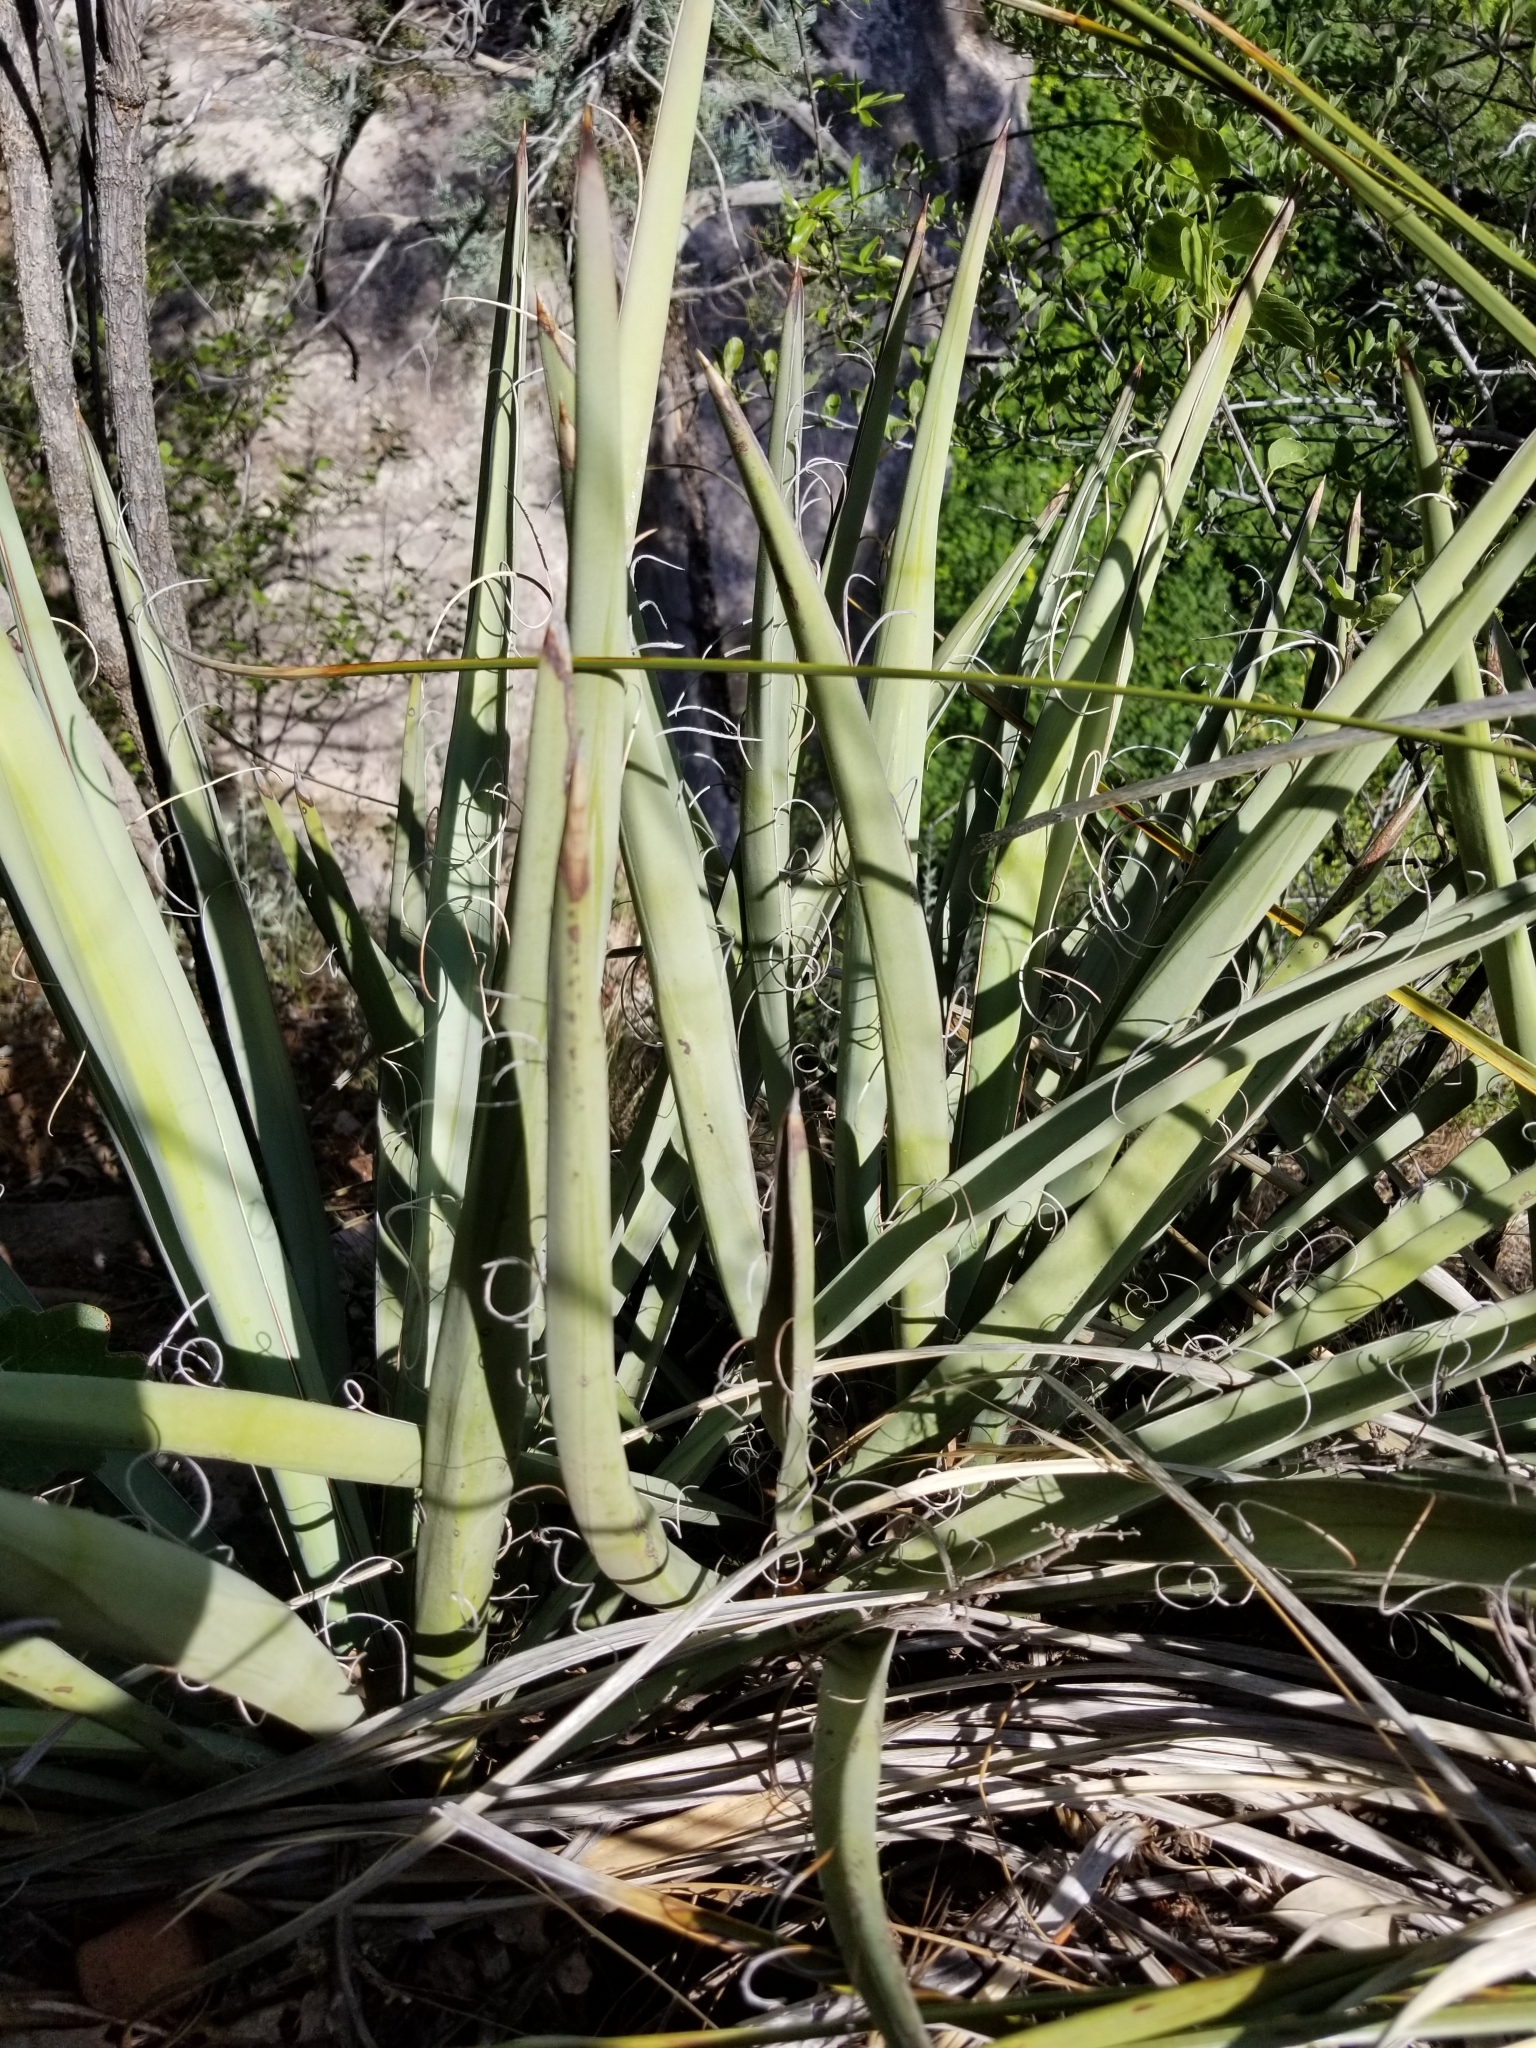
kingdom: Plantae
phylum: Tracheophyta
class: Liliopsida
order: Asparagales
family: Asparagaceae
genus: Yucca
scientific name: Yucca baccata
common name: Banana yucca
